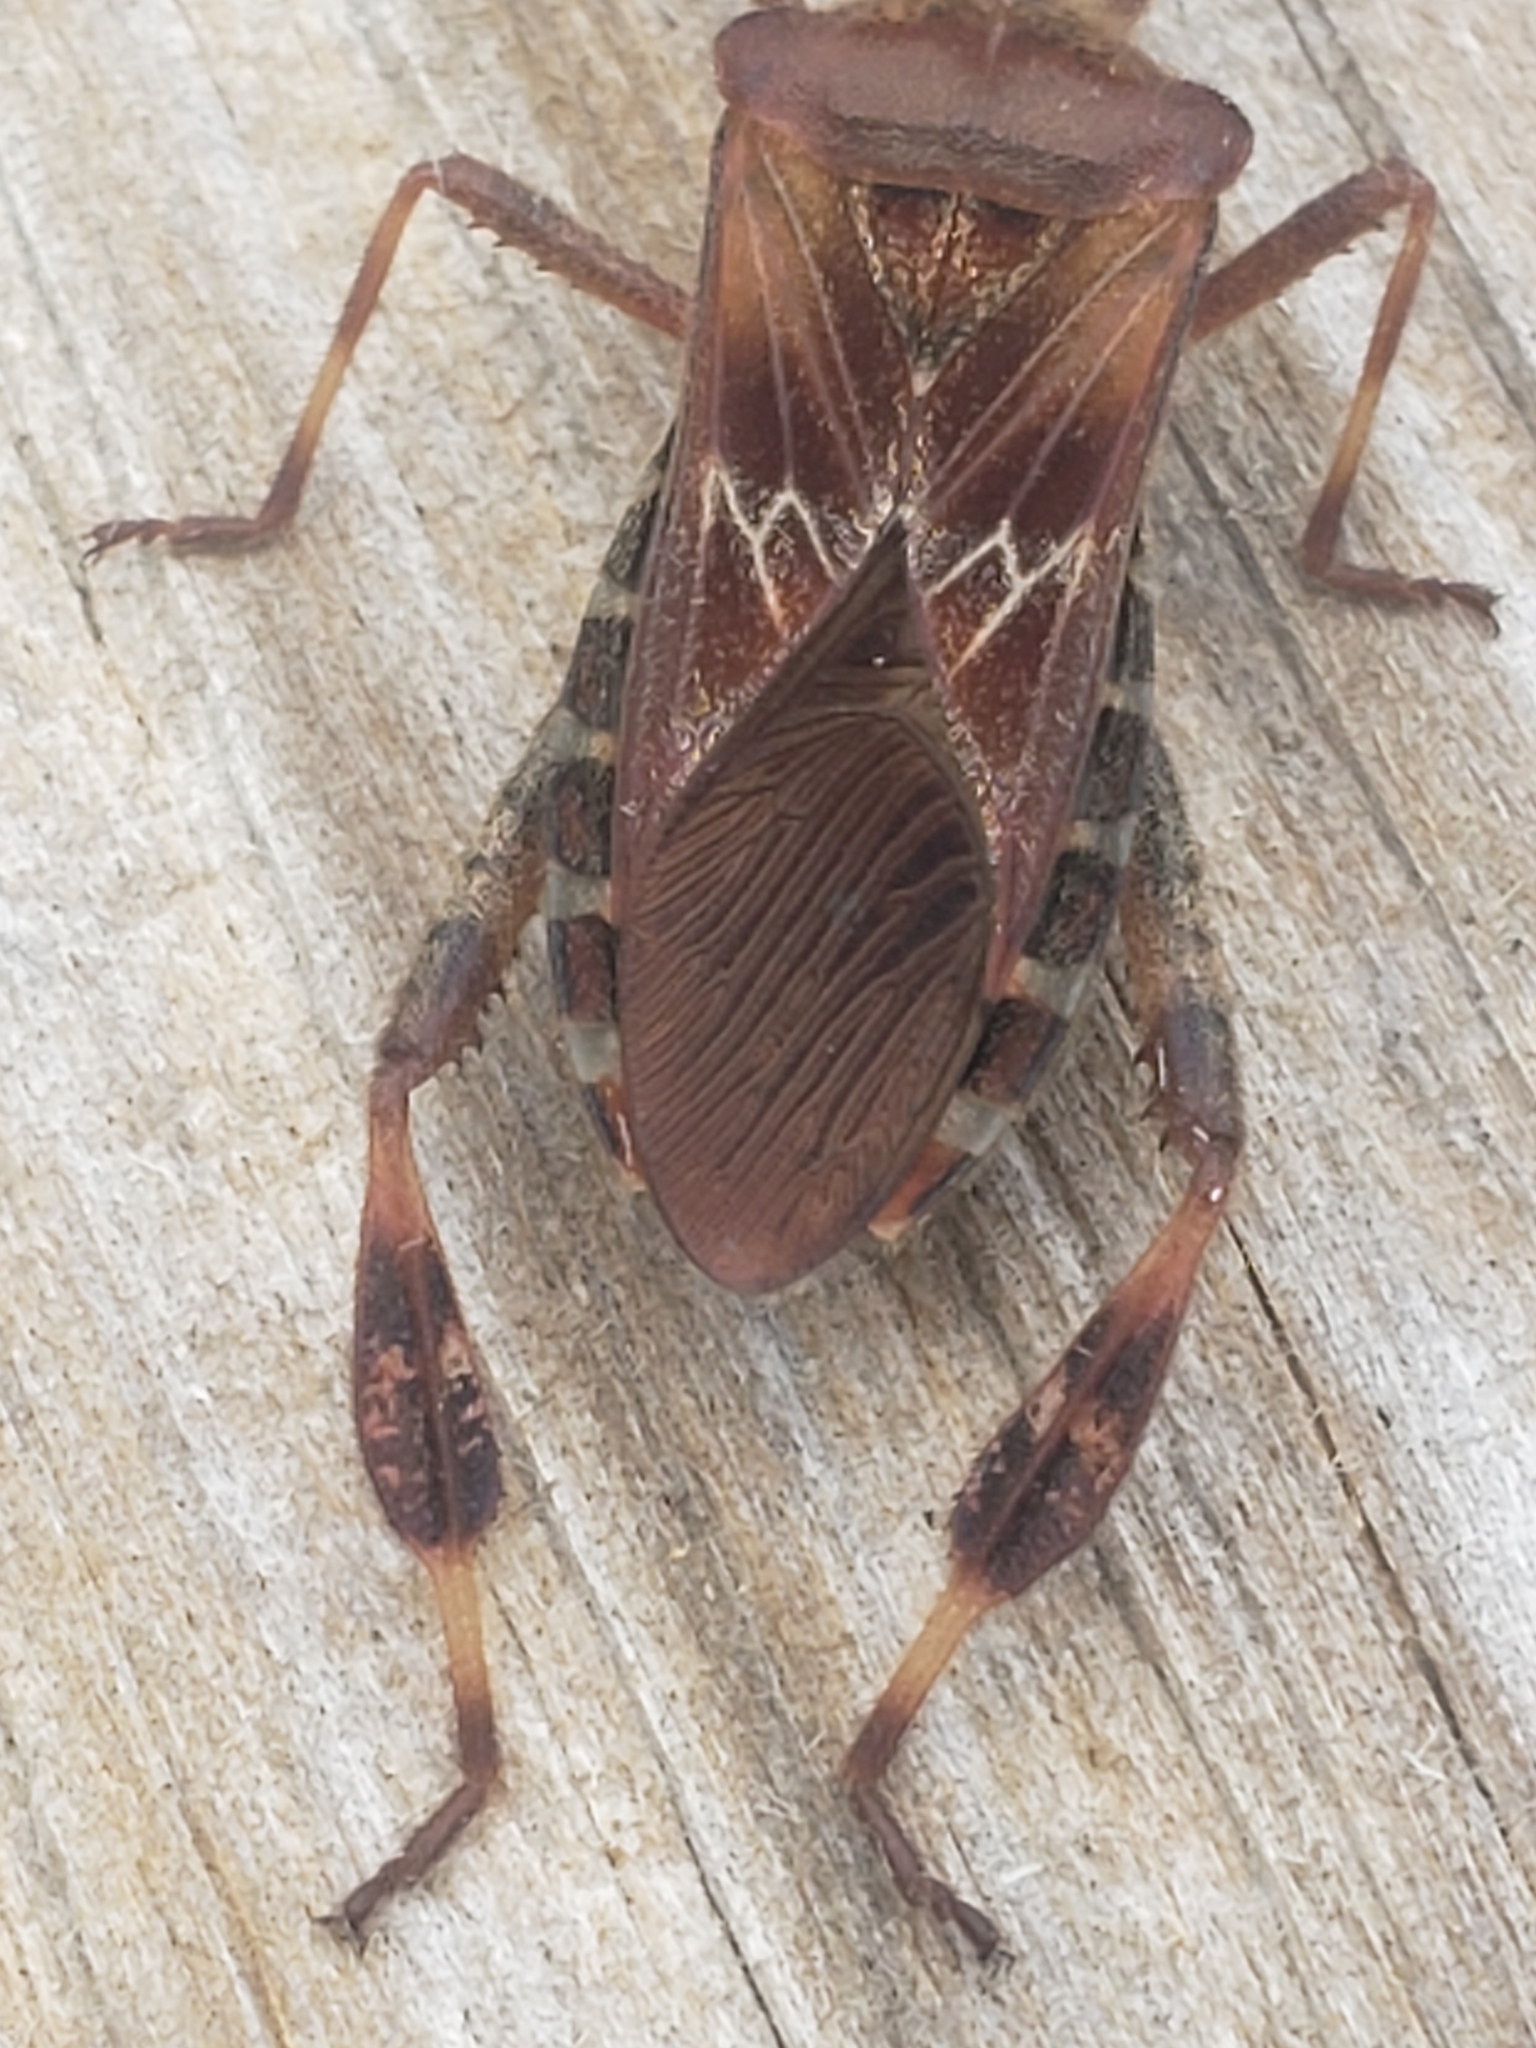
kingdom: Animalia
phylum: Arthropoda
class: Insecta
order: Hemiptera
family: Coreidae
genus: Leptoglossus
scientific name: Leptoglossus occidentalis
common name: Western conifer-seed bug
